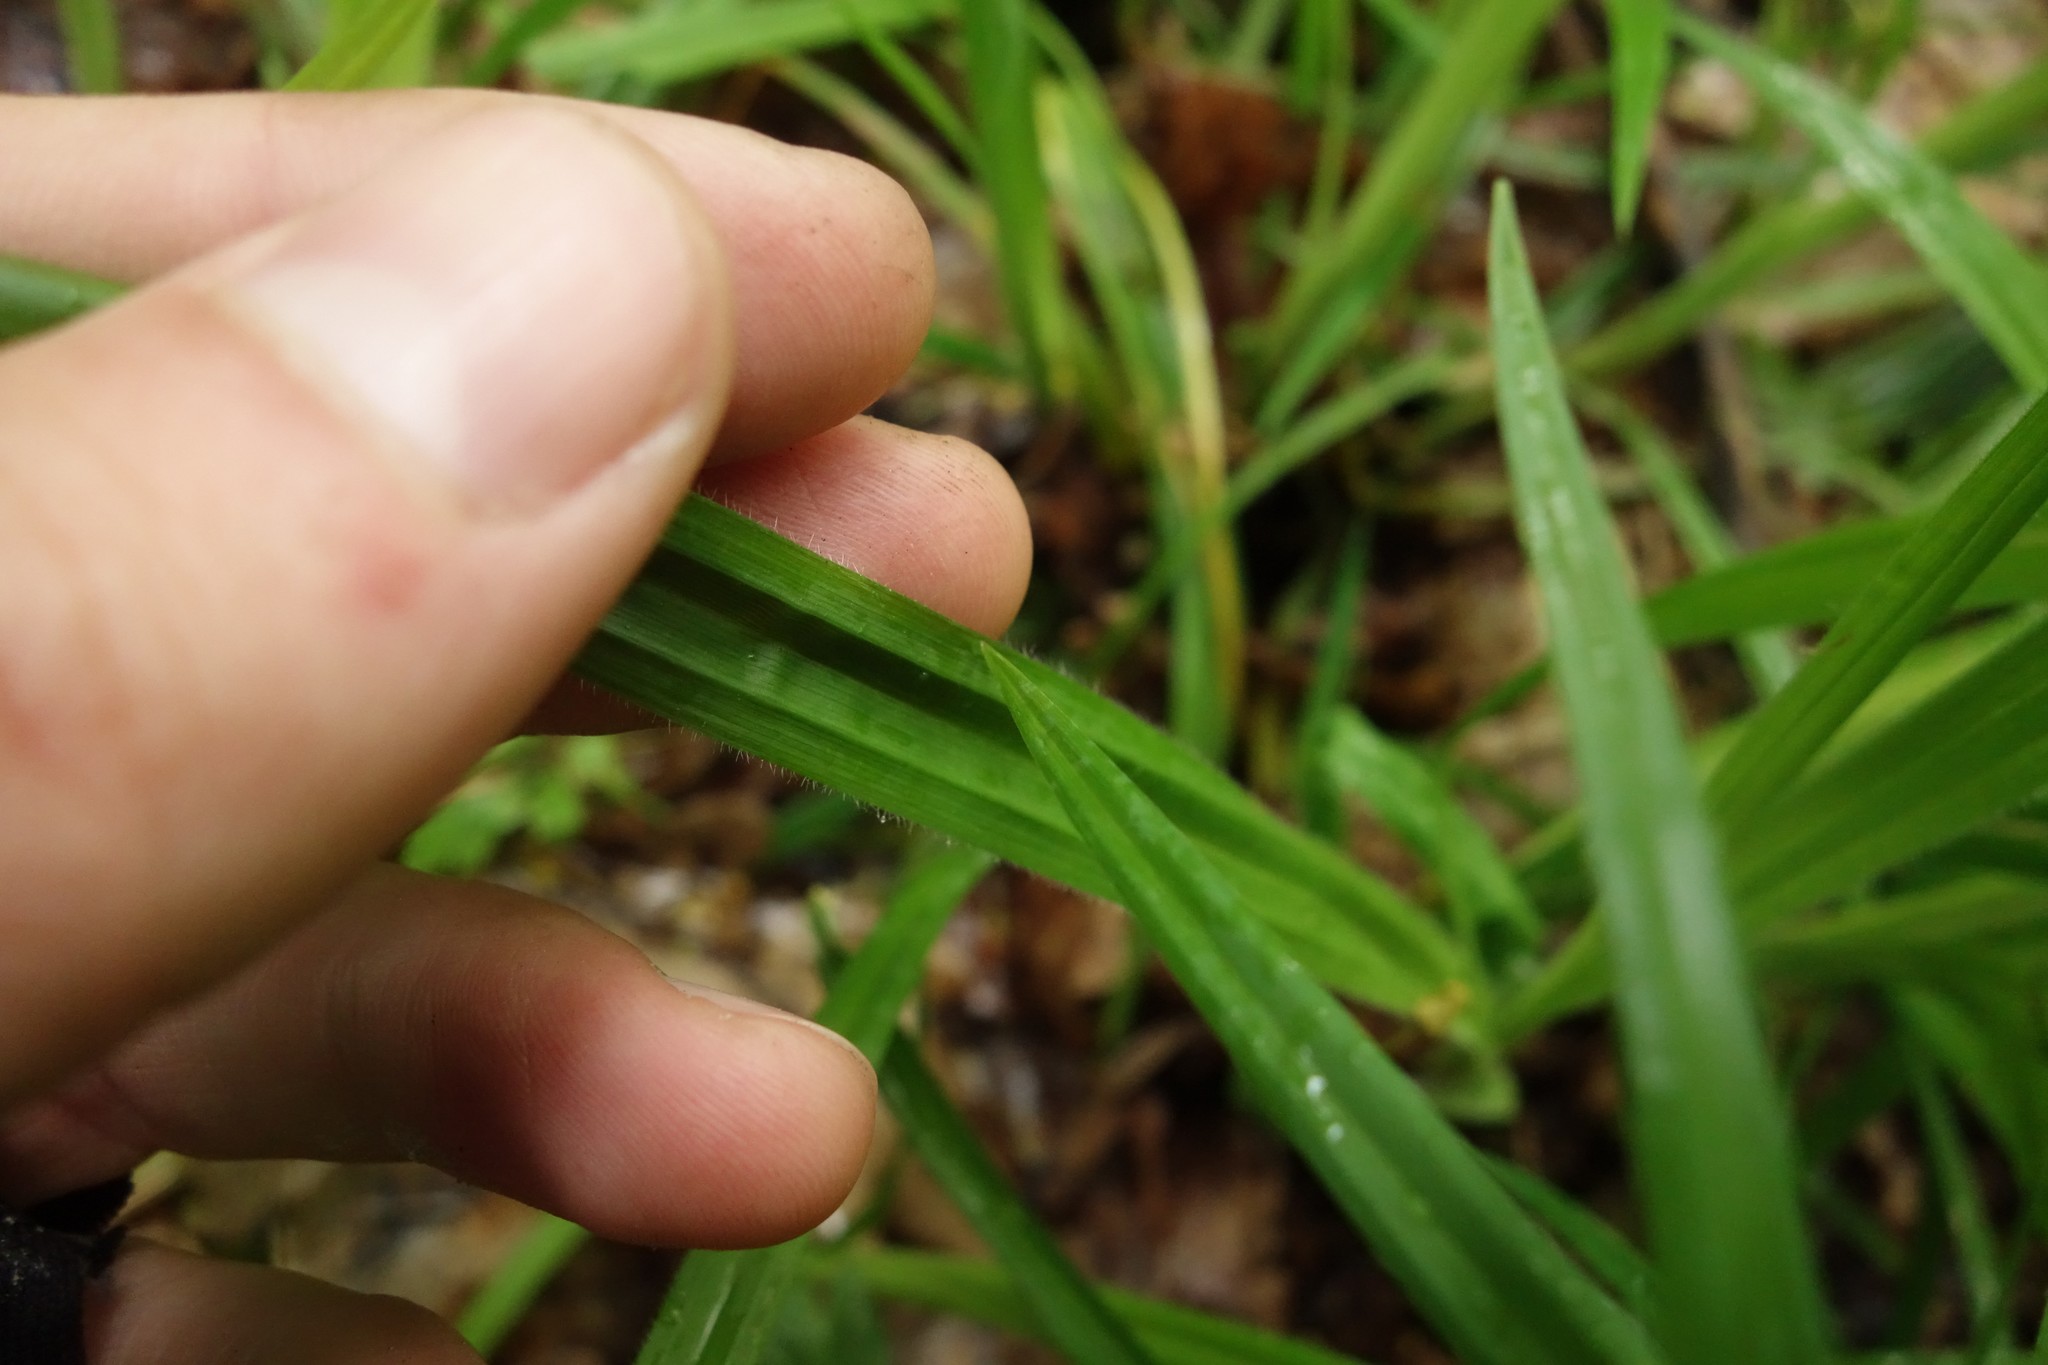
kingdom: Plantae
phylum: Tracheophyta
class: Liliopsida
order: Poales
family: Cyperaceae
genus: Carex
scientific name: Carex pilosa
